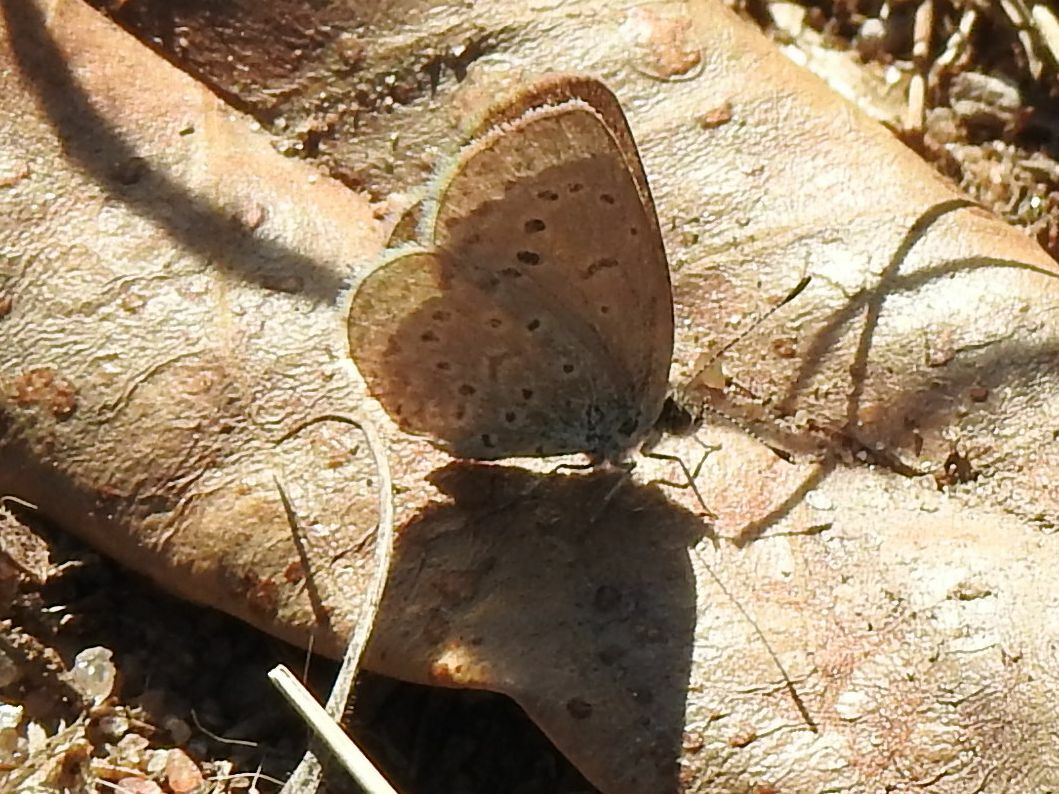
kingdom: Animalia
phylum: Arthropoda
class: Insecta
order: Lepidoptera
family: Lycaenidae
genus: Zizeeria
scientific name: Zizeeria knysna
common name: African grass blue
